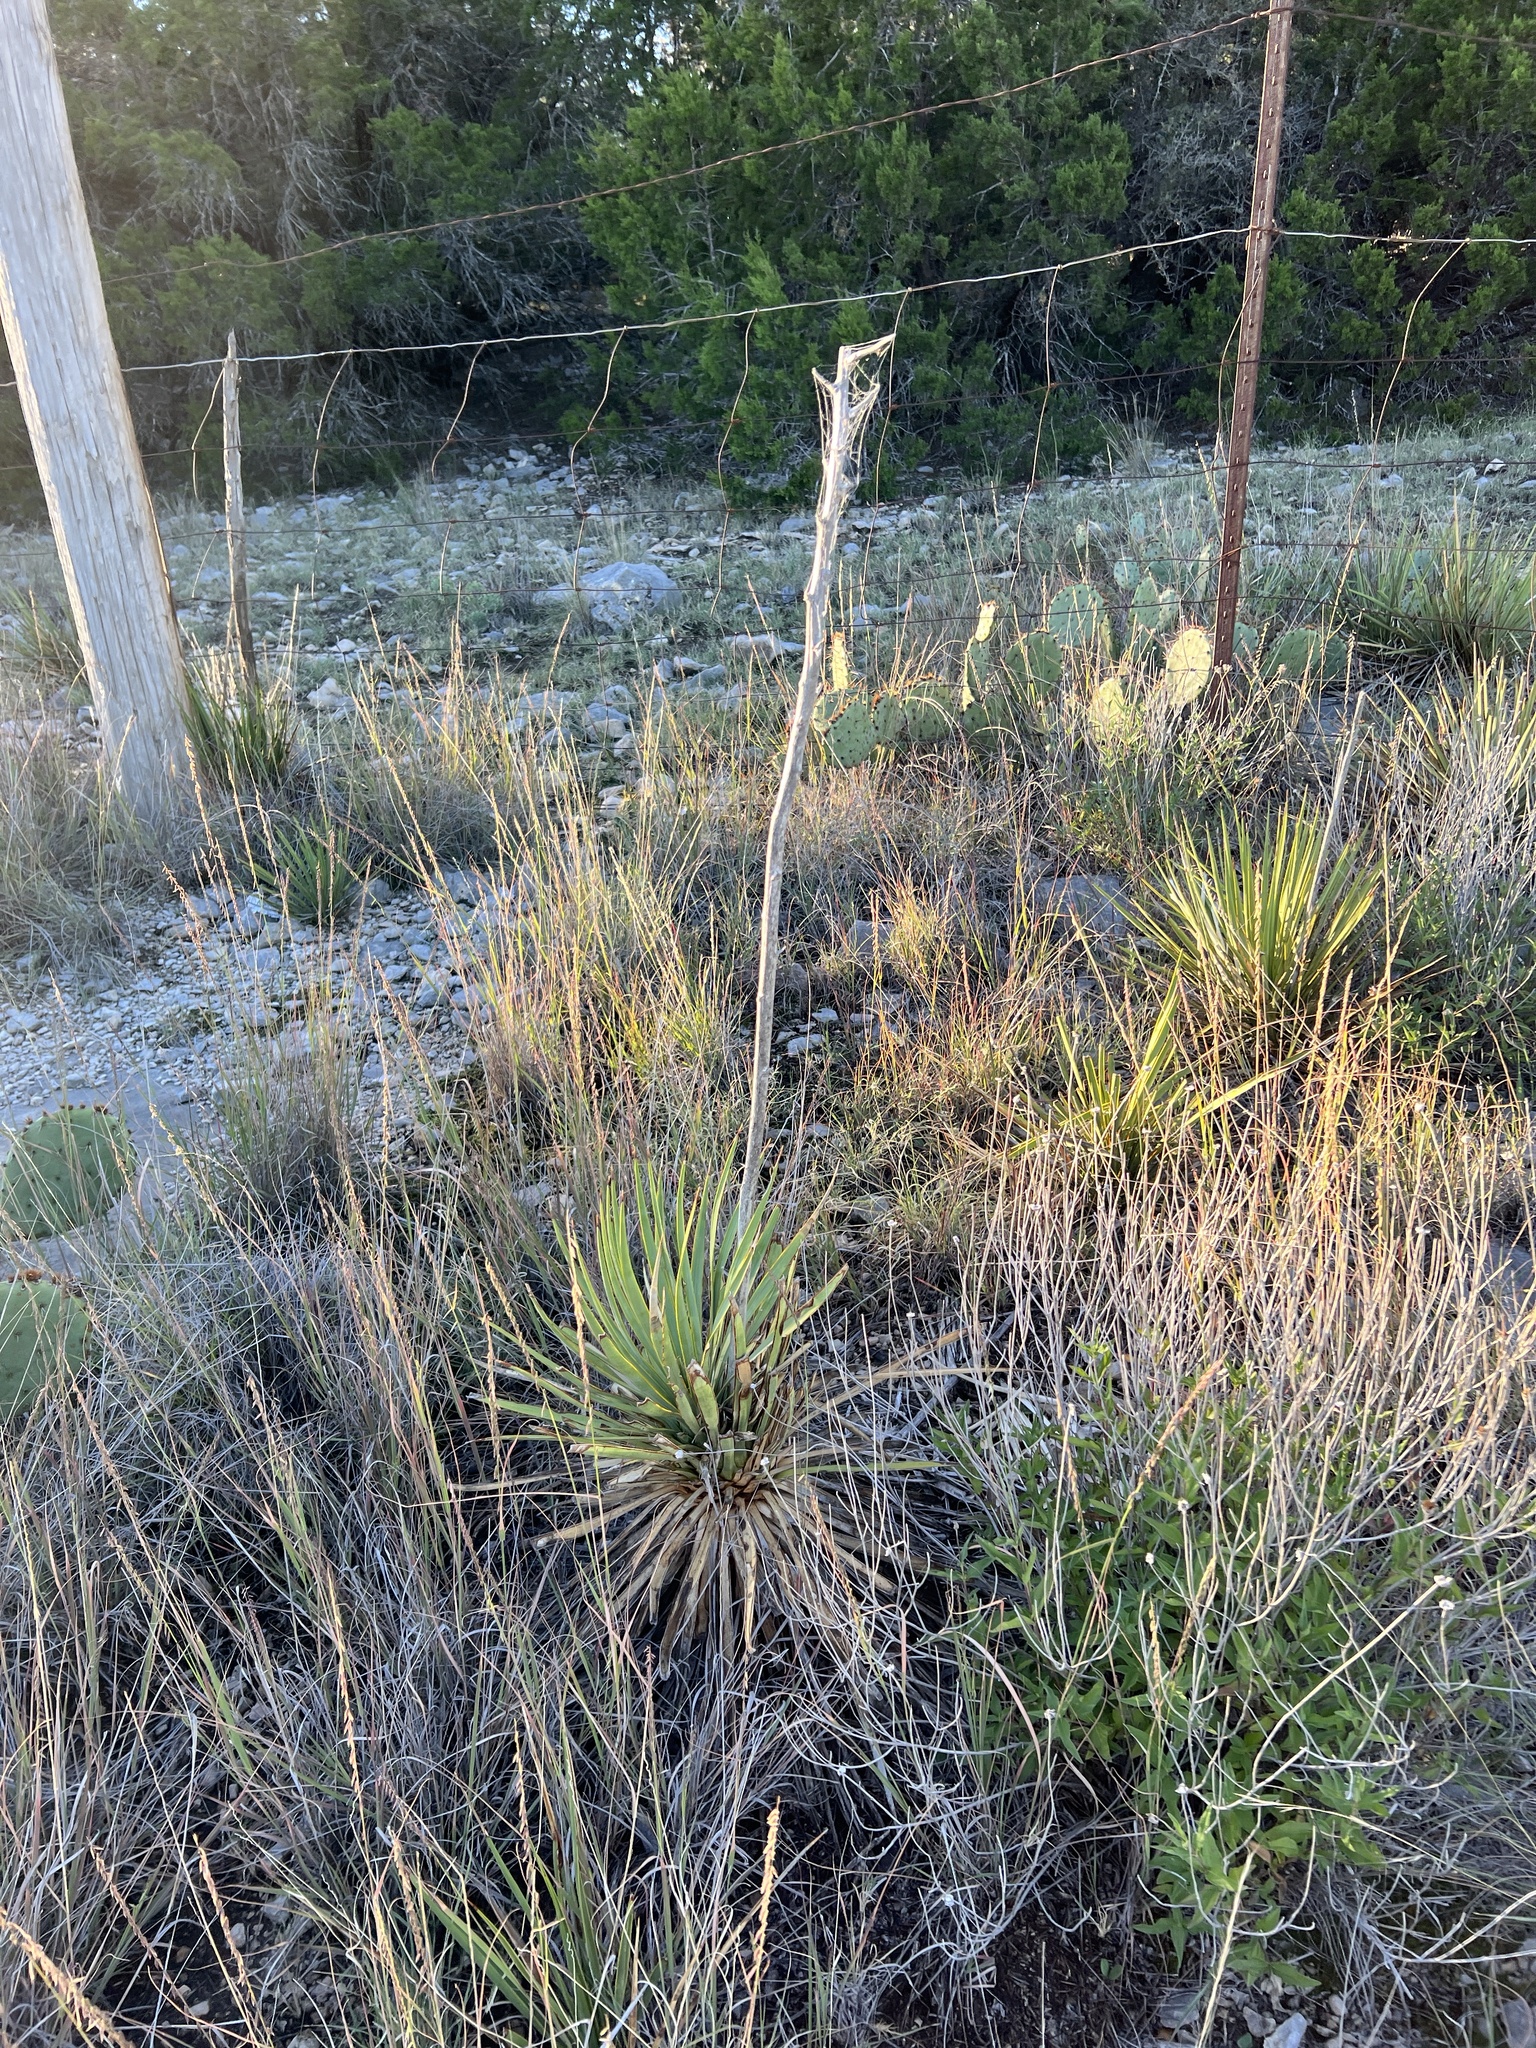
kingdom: Plantae
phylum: Tracheophyta
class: Liliopsida
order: Asparagales
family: Asparagaceae
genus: Yucca
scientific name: Yucca reverchonii
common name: San angelo yucca
